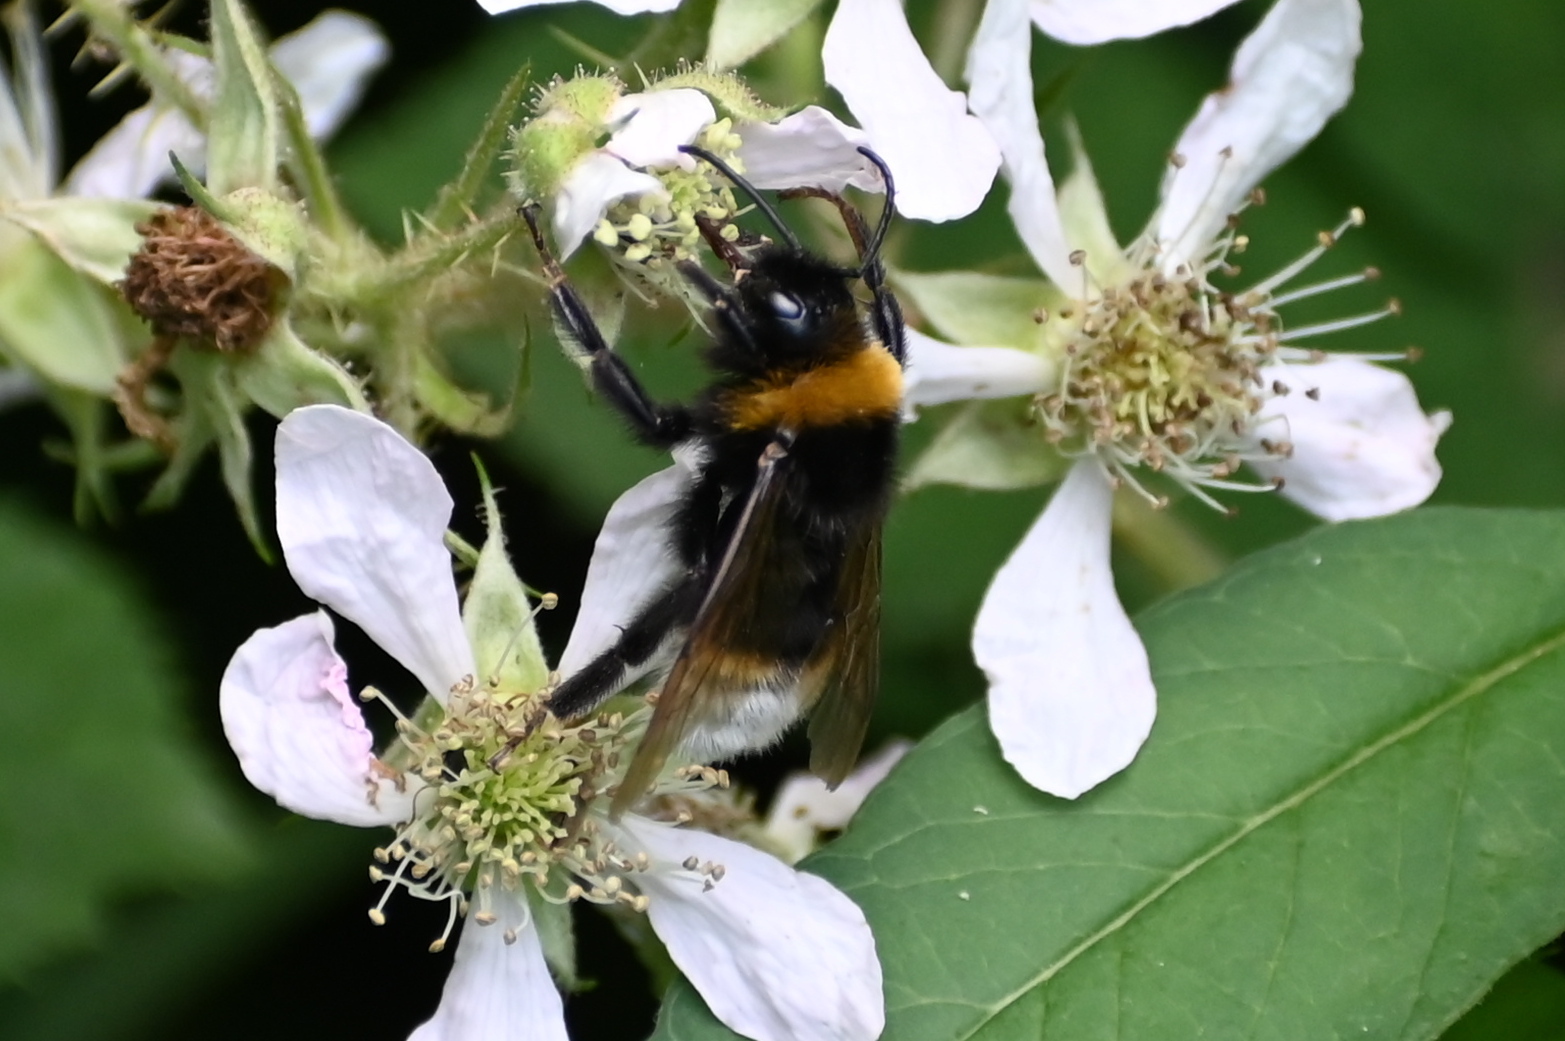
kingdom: Animalia
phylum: Arthropoda
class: Insecta
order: Hymenoptera
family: Apidae
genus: Bombus
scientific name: Bombus vestalis
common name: Vestal cuckoo bee
